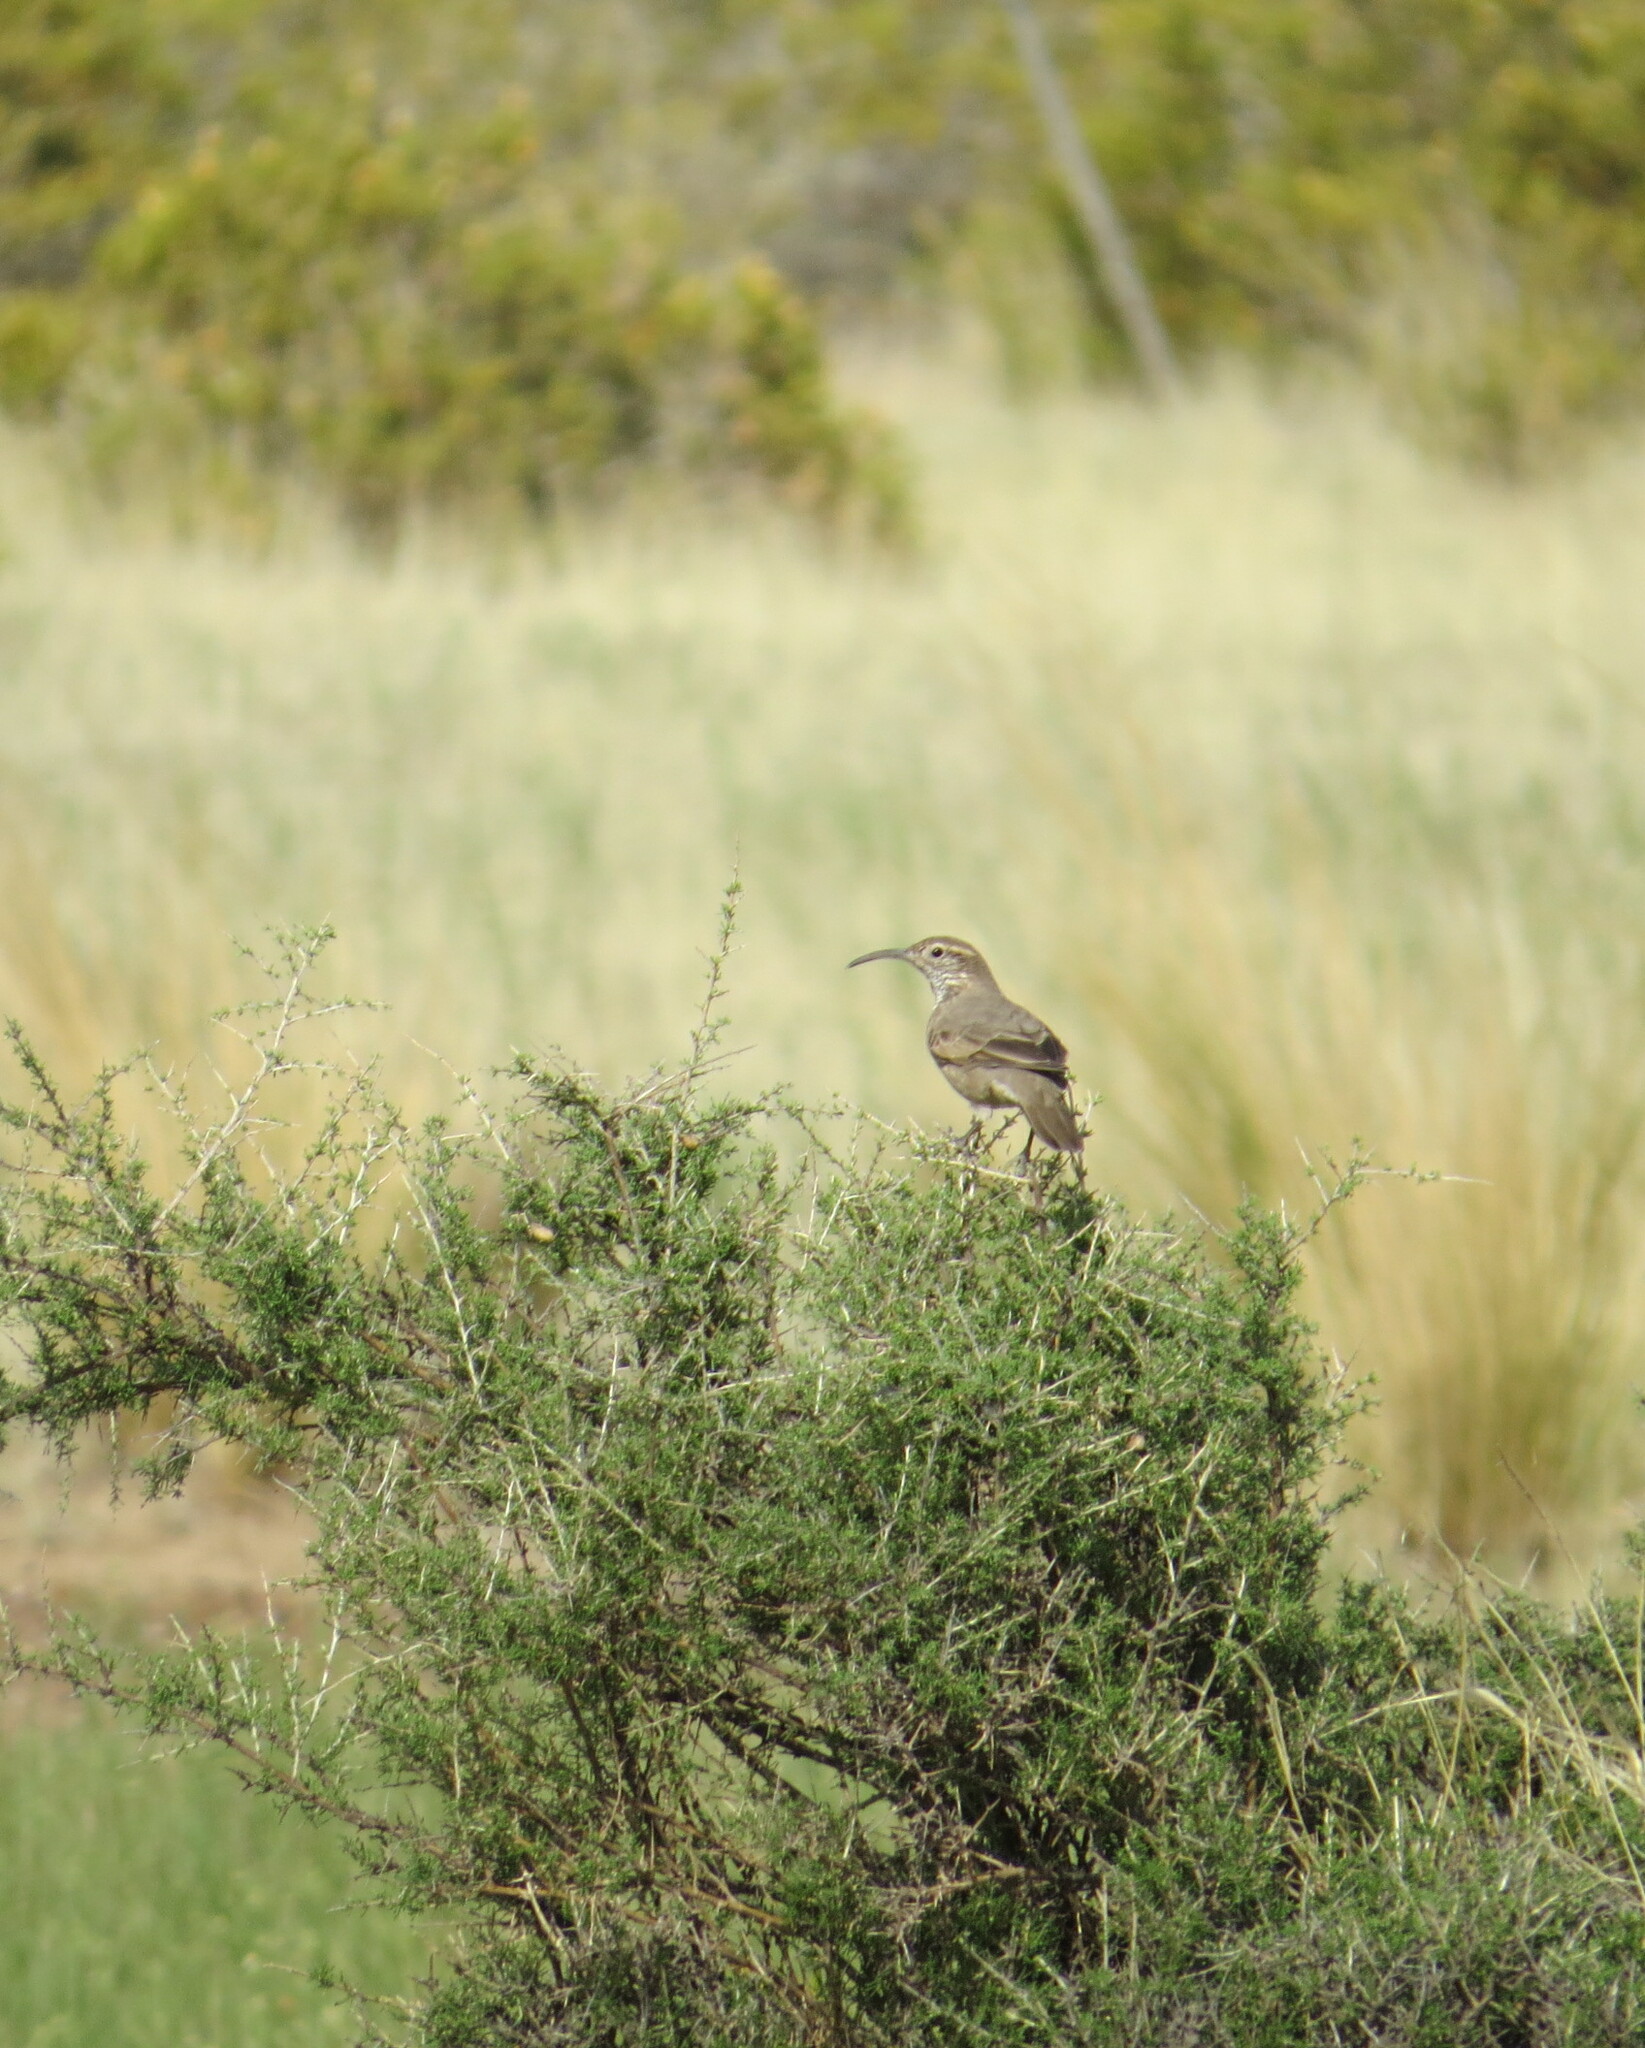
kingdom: Animalia
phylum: Chordata
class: Aves
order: Passeriformes
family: Furnariidae
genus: Upucerthia
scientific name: Upucerthia dumetaria
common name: Scale-throated earthcreeper
